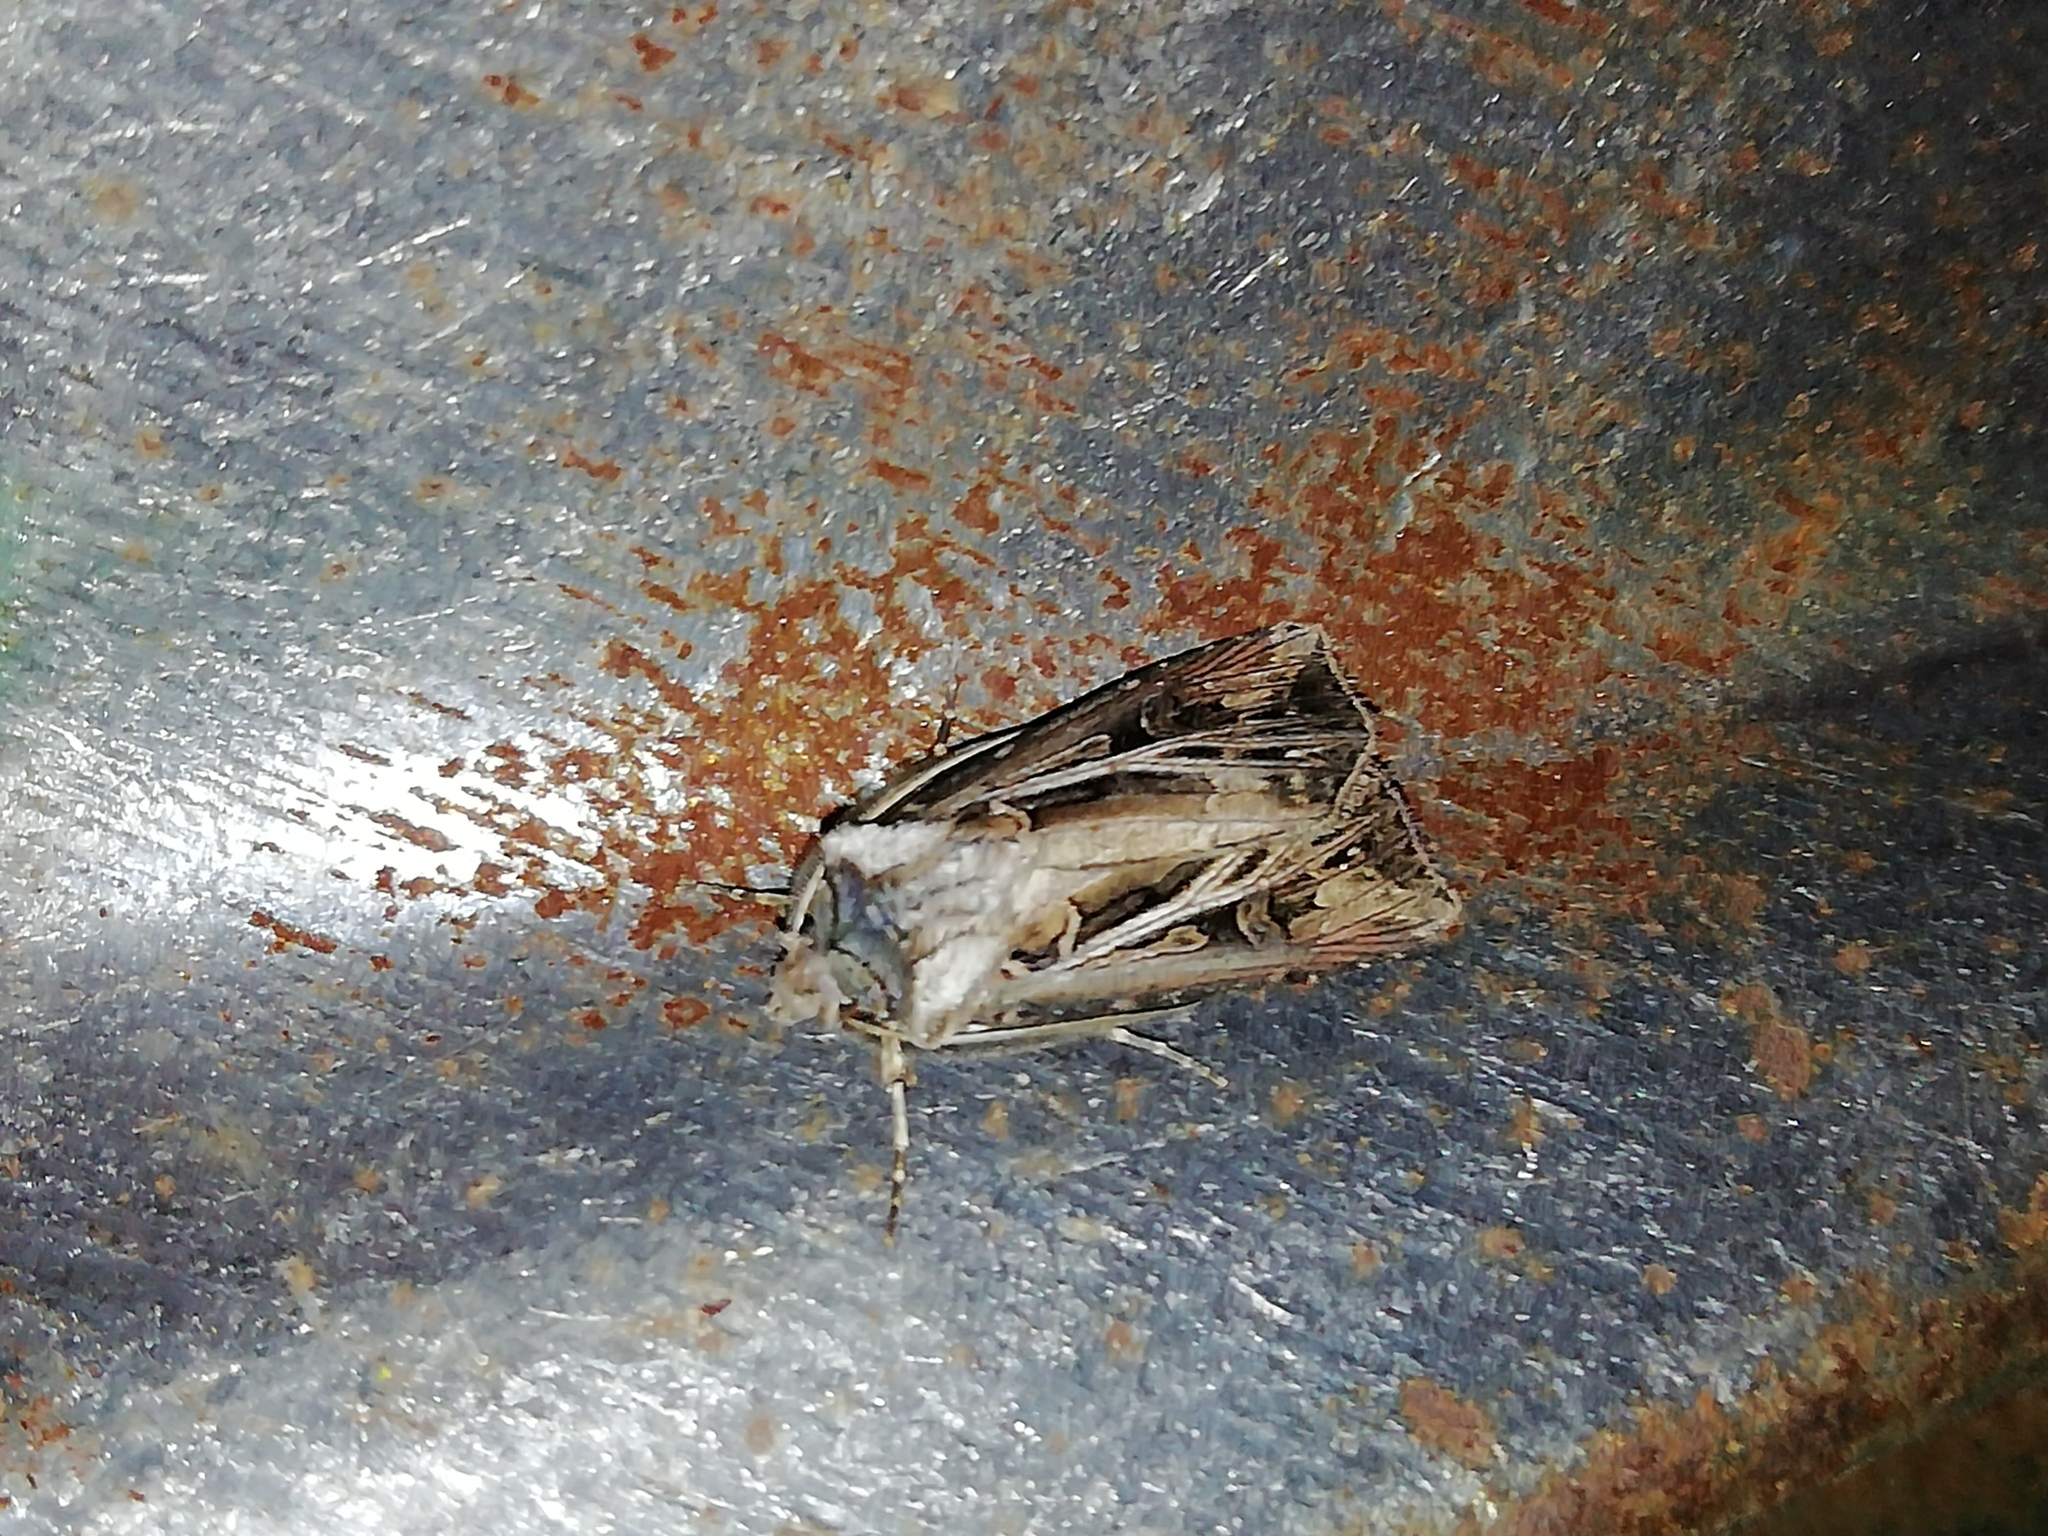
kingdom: Animalia
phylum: Arthropoda
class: Insecta
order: Lepidoptera
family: Noctuidae
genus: Agrotis
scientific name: Agrotis vestigialis
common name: Archer's dart
